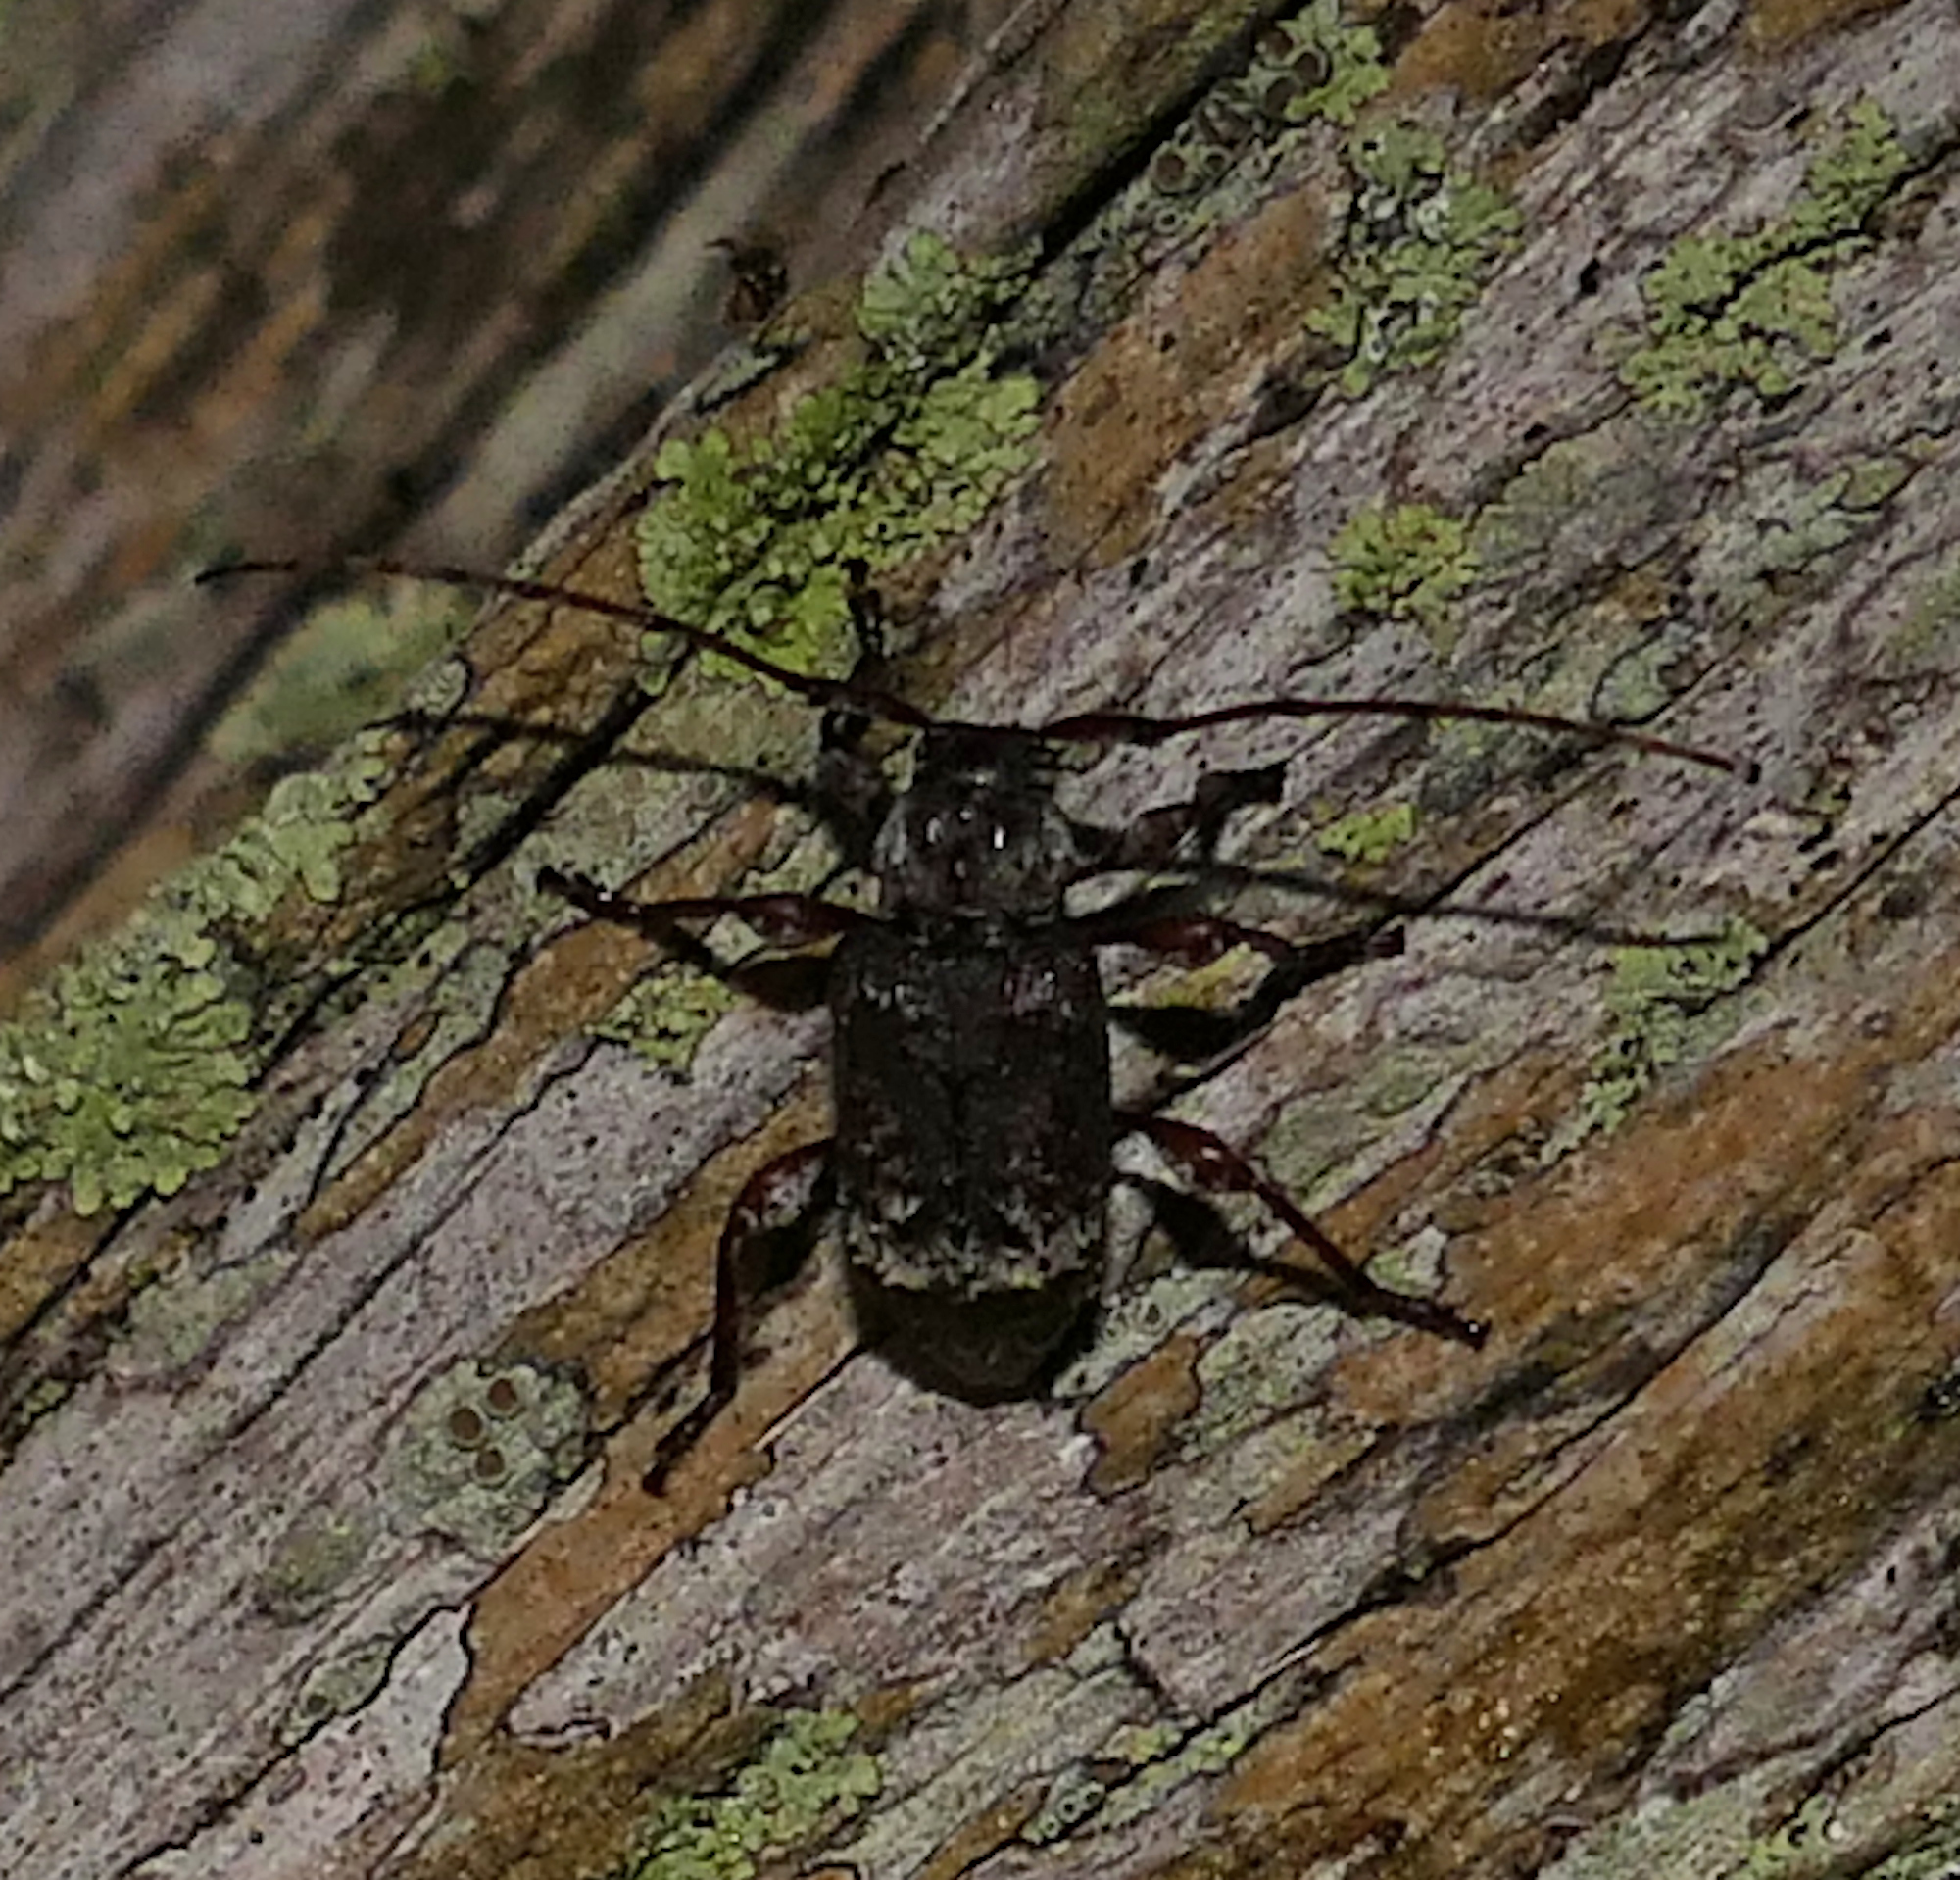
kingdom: Animalia
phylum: Arthropoda
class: Insecta
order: Coleoptera
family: Cerambycidae
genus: Leptostylus
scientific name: Leptostylus transversus
